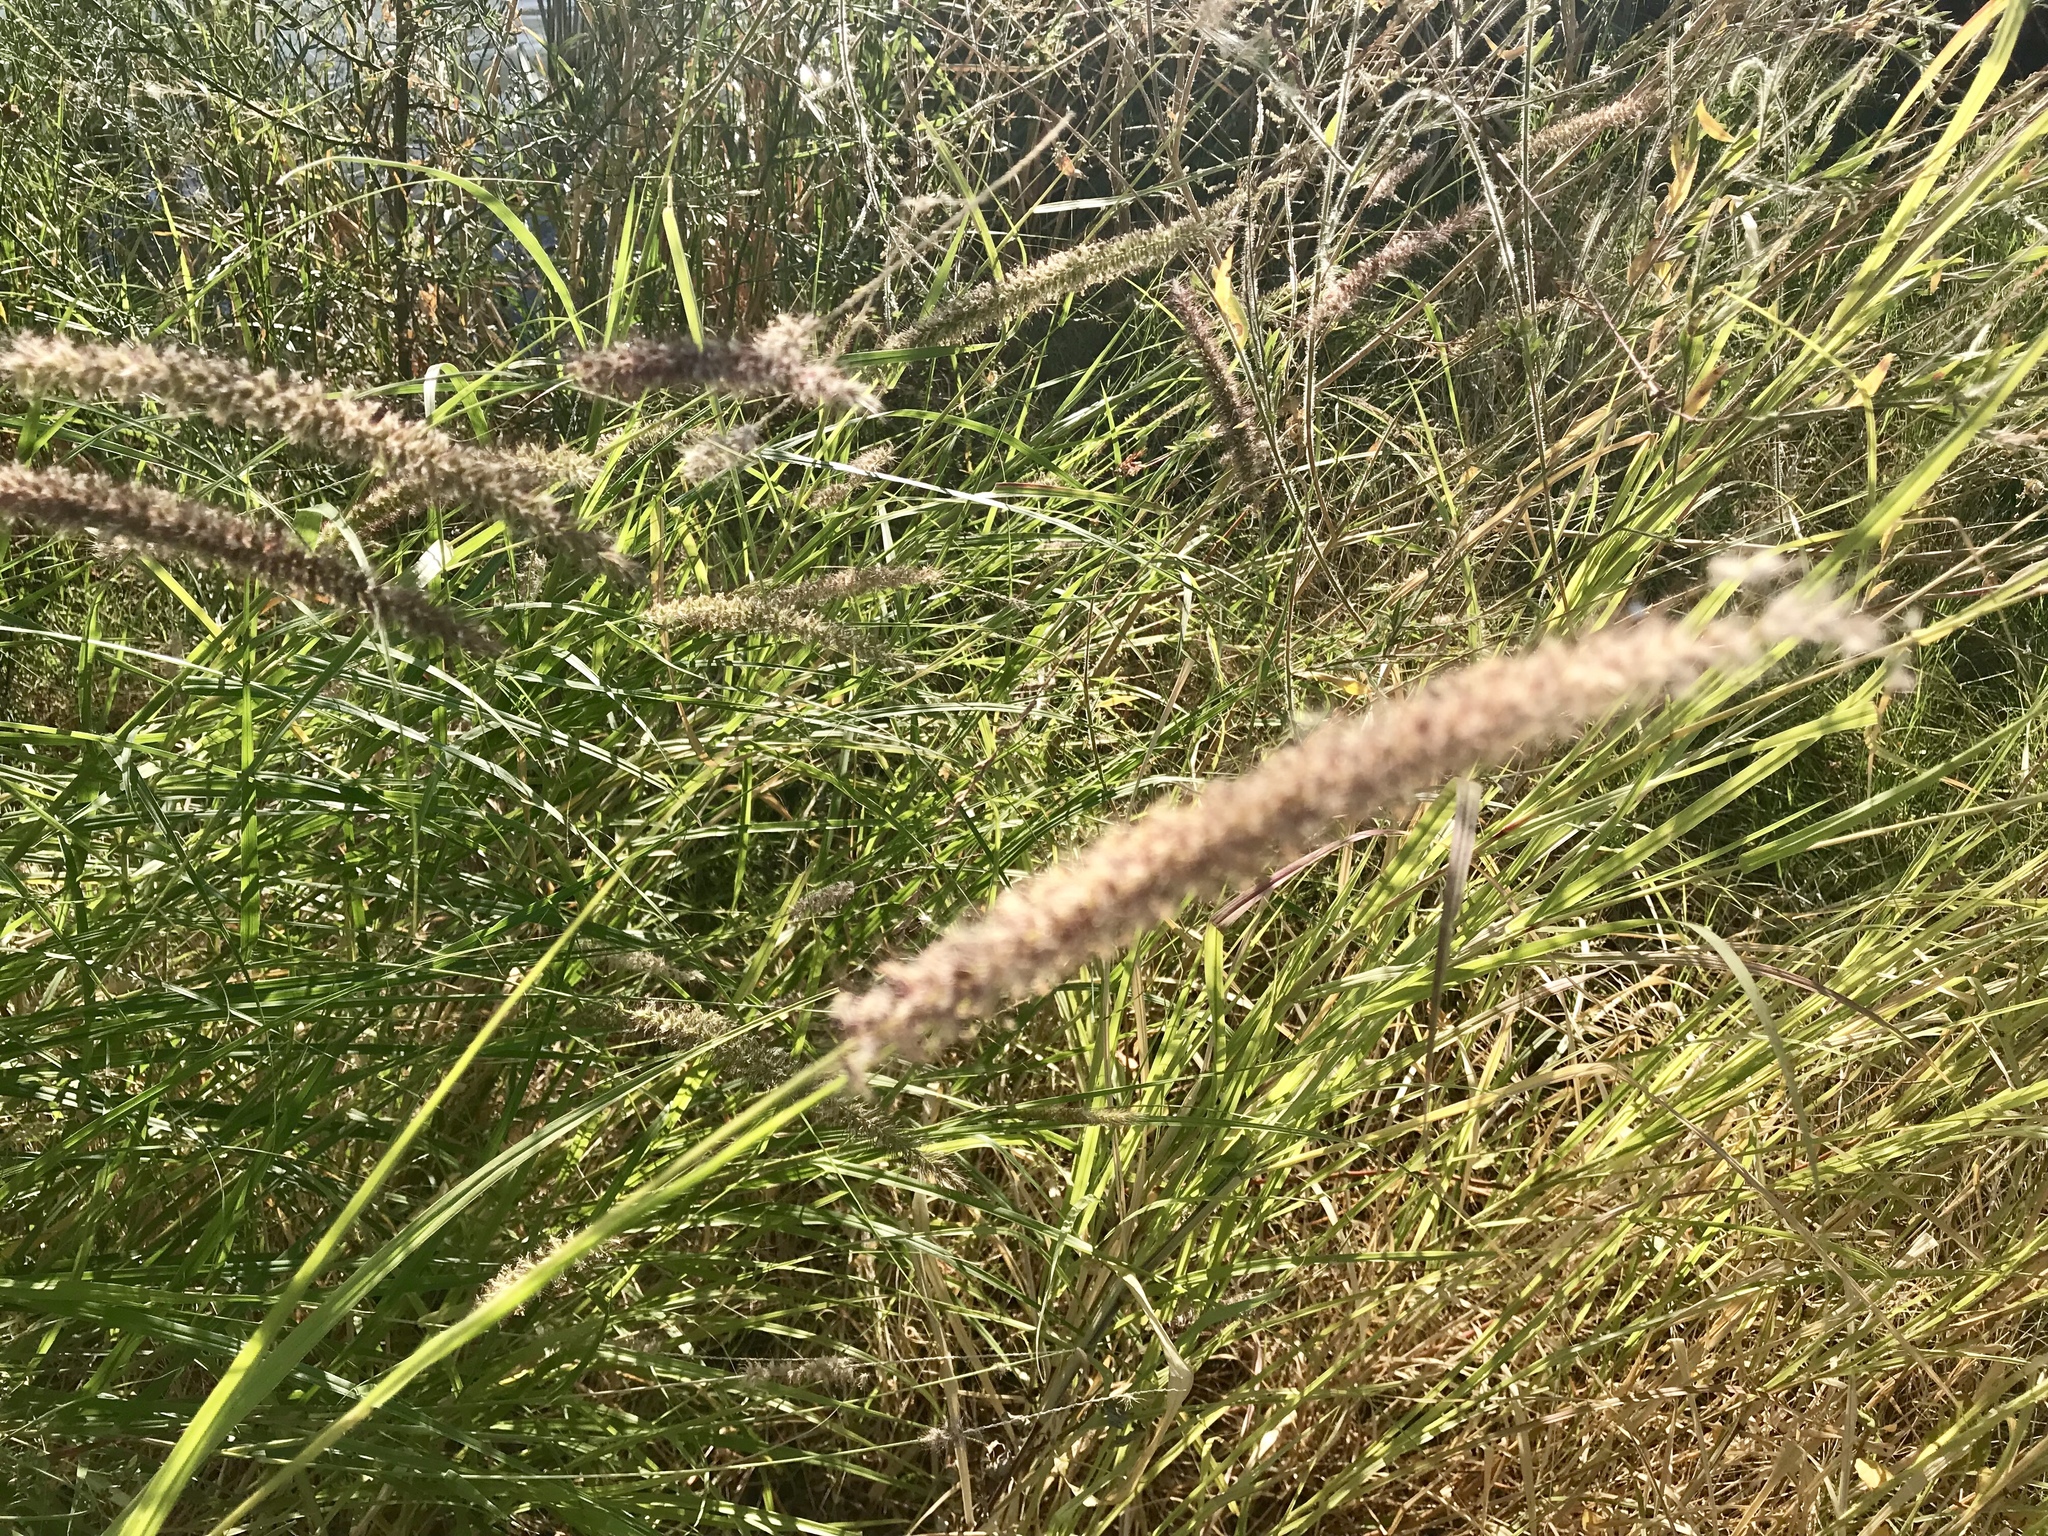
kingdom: Plantae
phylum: Tracheophyta
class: Liliopsida
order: Poales
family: Poaceae
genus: Cenchrus
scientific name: Cenchrus ciliaris
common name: Buffelgrass
